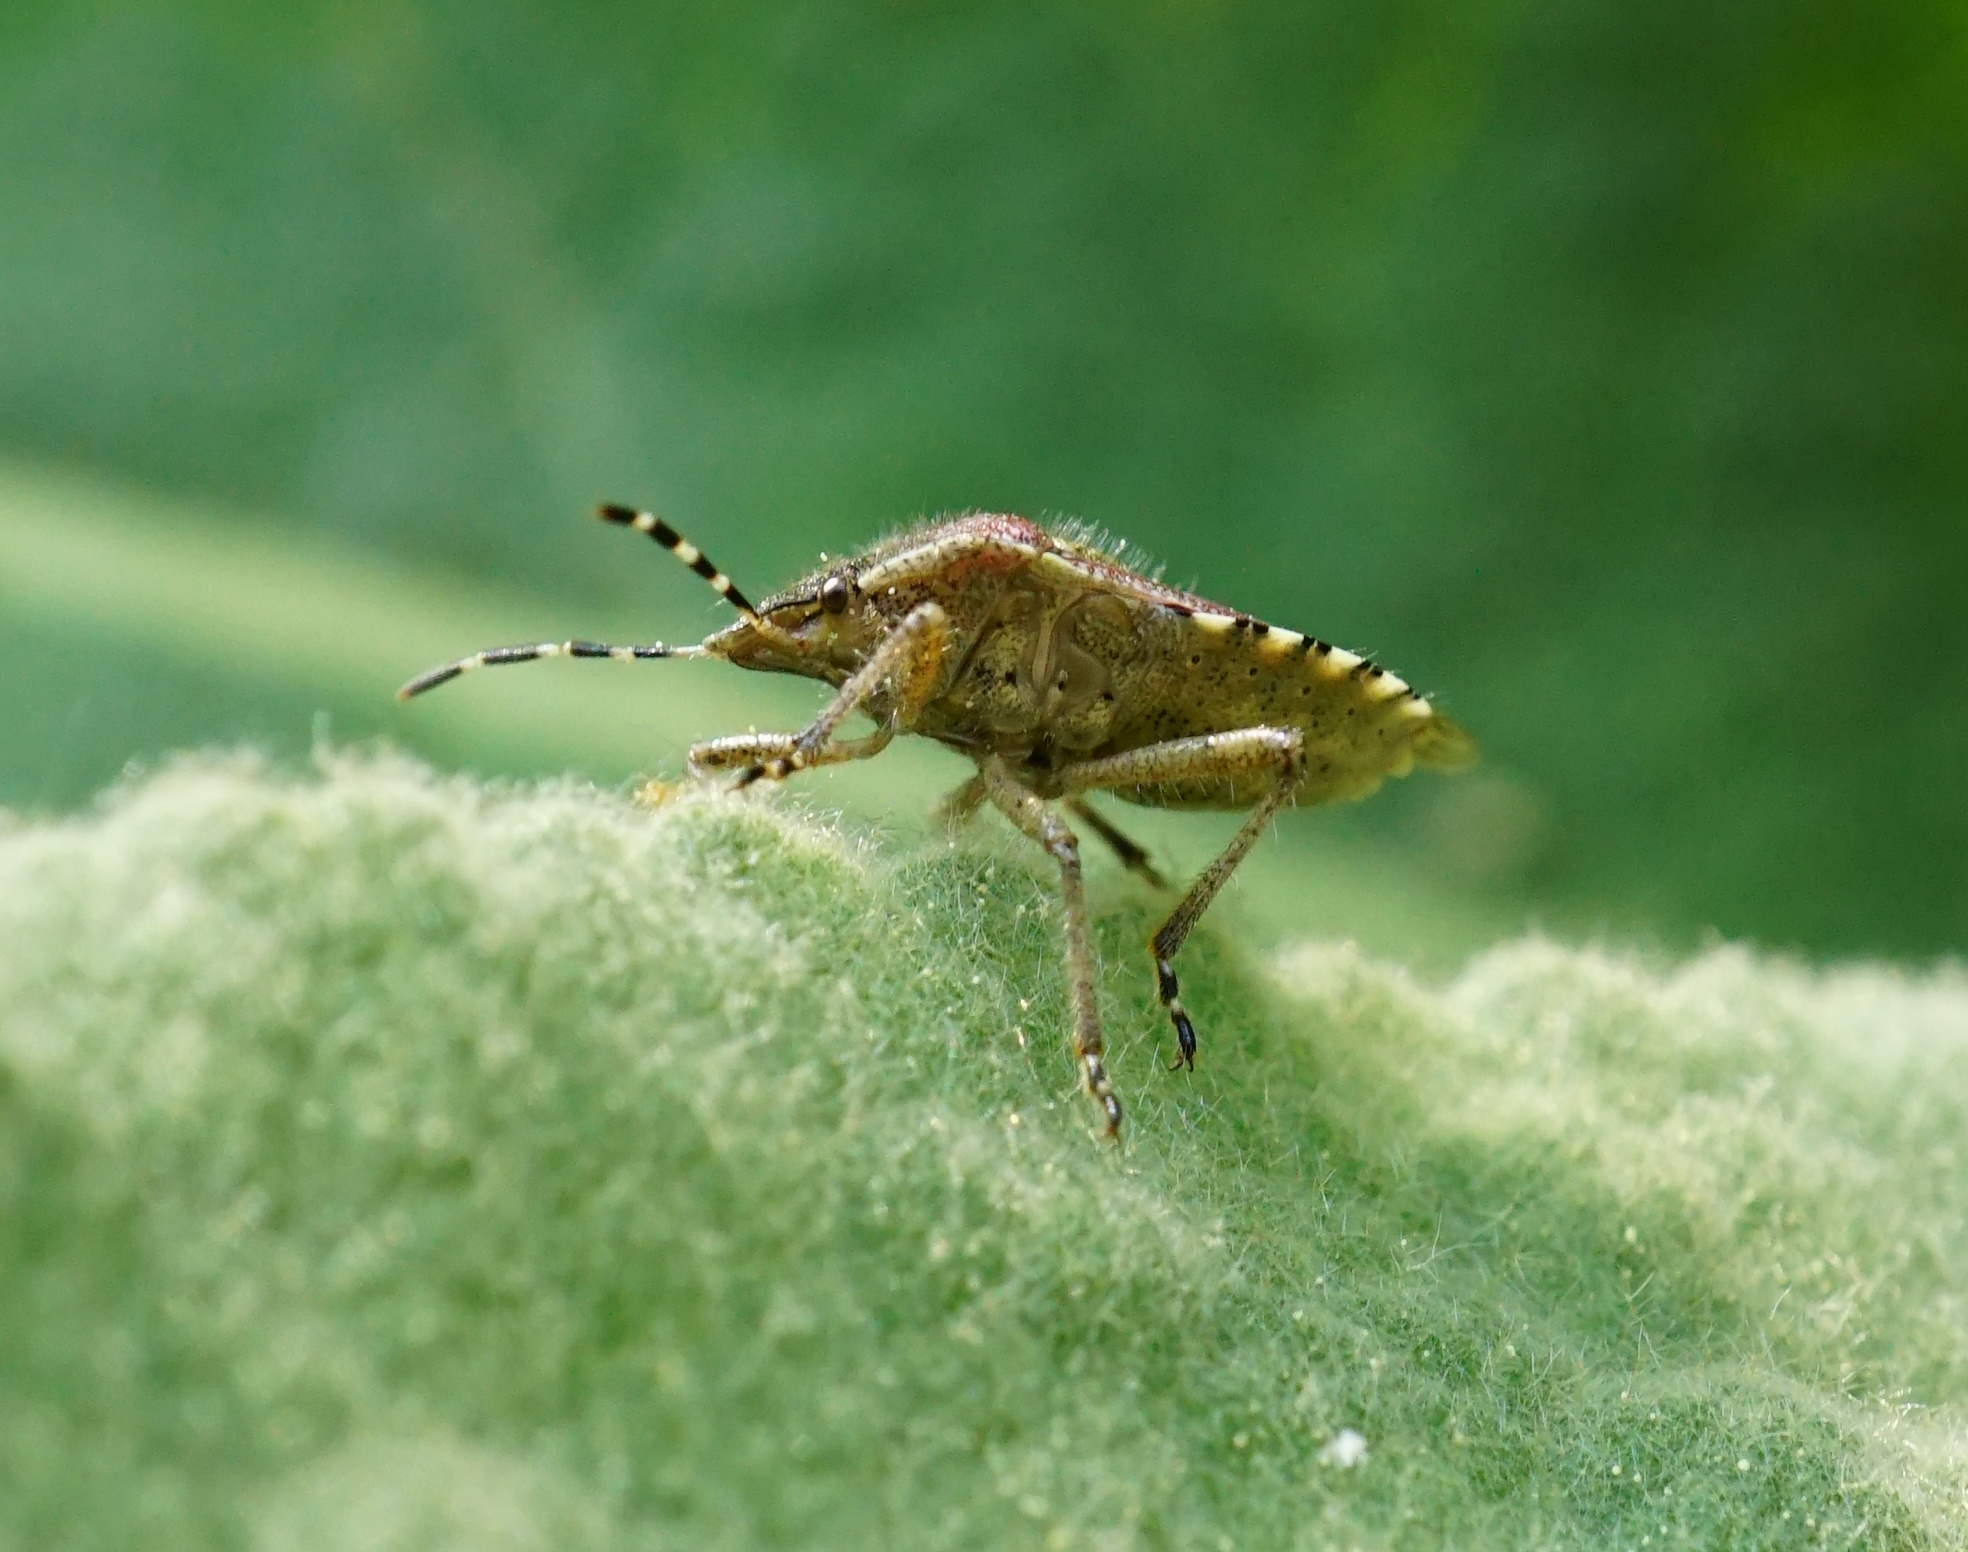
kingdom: Animalia
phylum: Arthropoda
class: Insecta
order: Hemiptera
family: Pentatomidae
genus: Dolycoris
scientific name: Dolycoris baccarum
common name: Sloe bug
